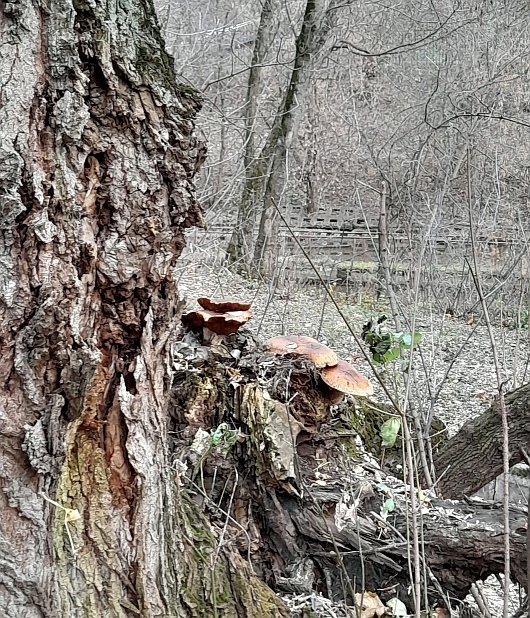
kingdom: Fungi
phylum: Basidiomycota
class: Agaricomycetes
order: Agaricales
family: Strophariaceae
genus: Pholiota
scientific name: Pholiota populnea
